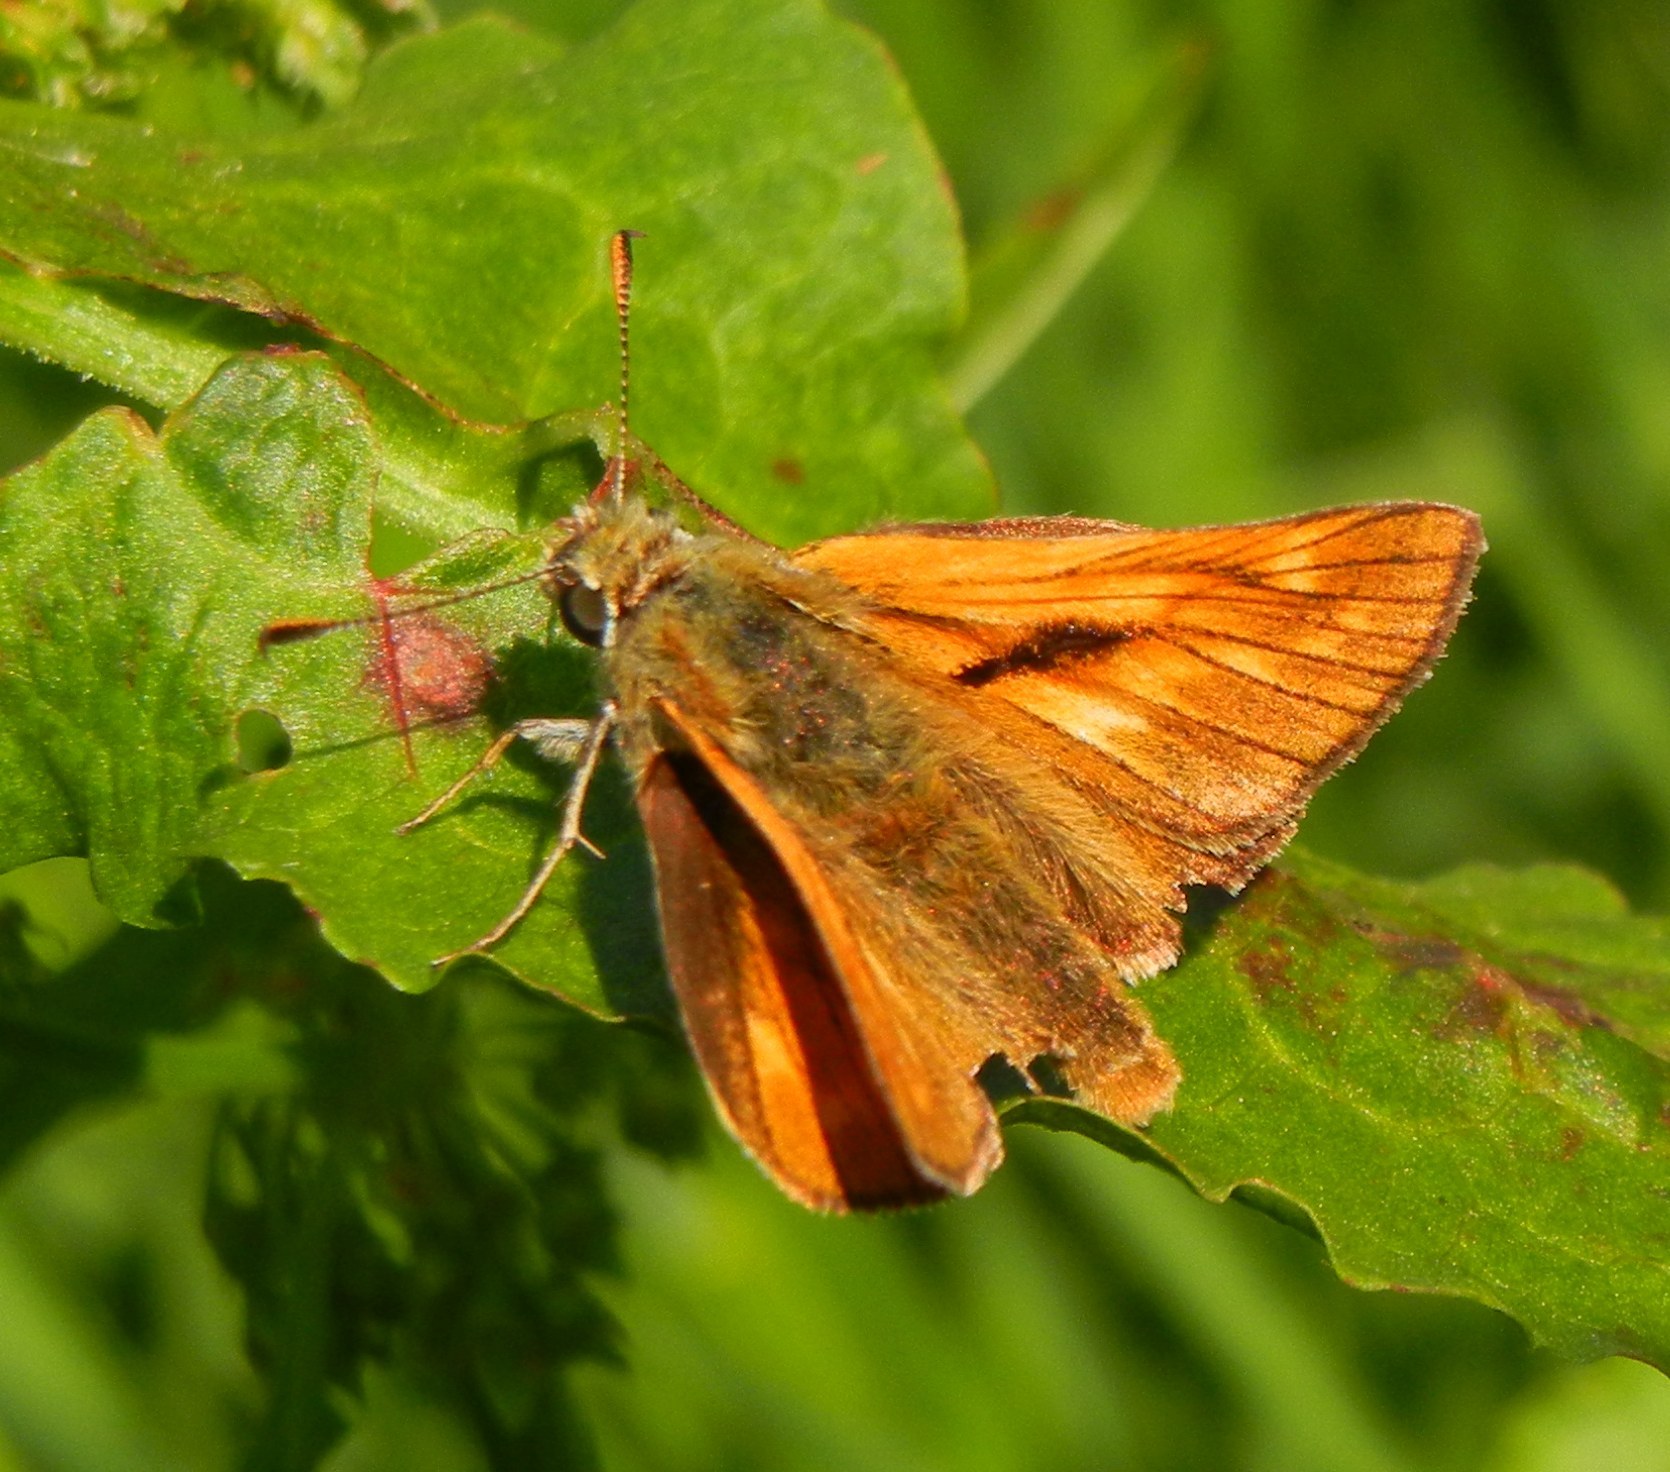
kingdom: Animalia
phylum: Arthropoda
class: Insecta
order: Lepidoptera
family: Hesperiidae
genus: Ochlodes
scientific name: Ochlodes venata
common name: Large skipper
